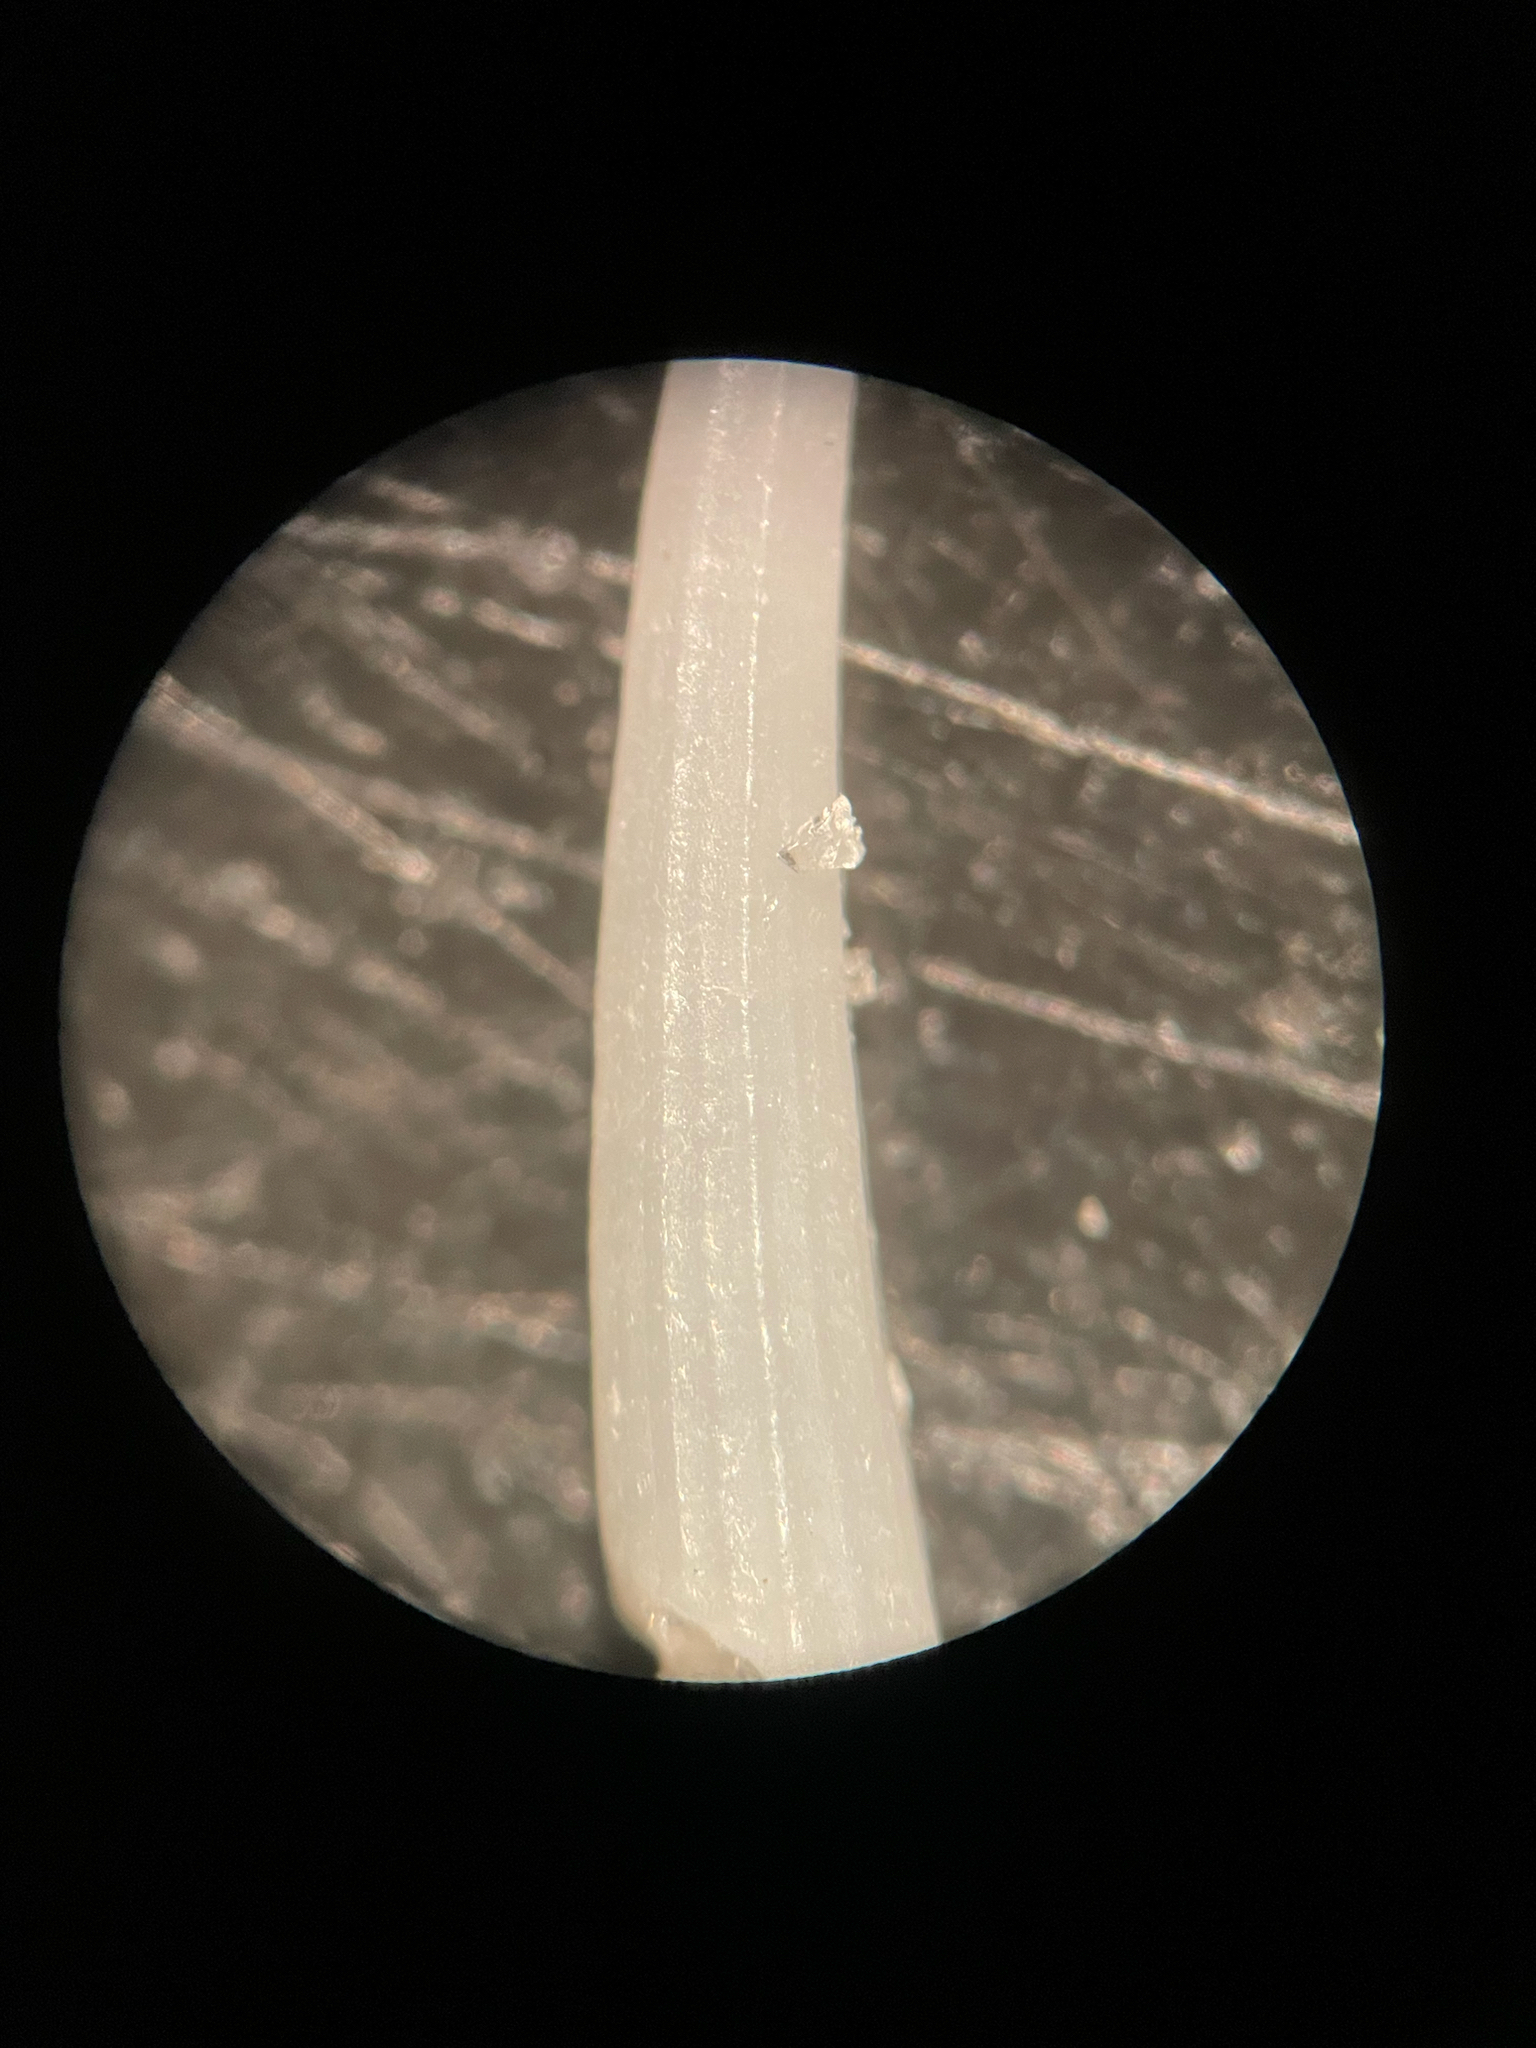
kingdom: Animalia
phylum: Mollusca
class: Scaphopoda
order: Dentaliida
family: Dentaliidae
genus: Antalis
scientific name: Antalis antillarum
